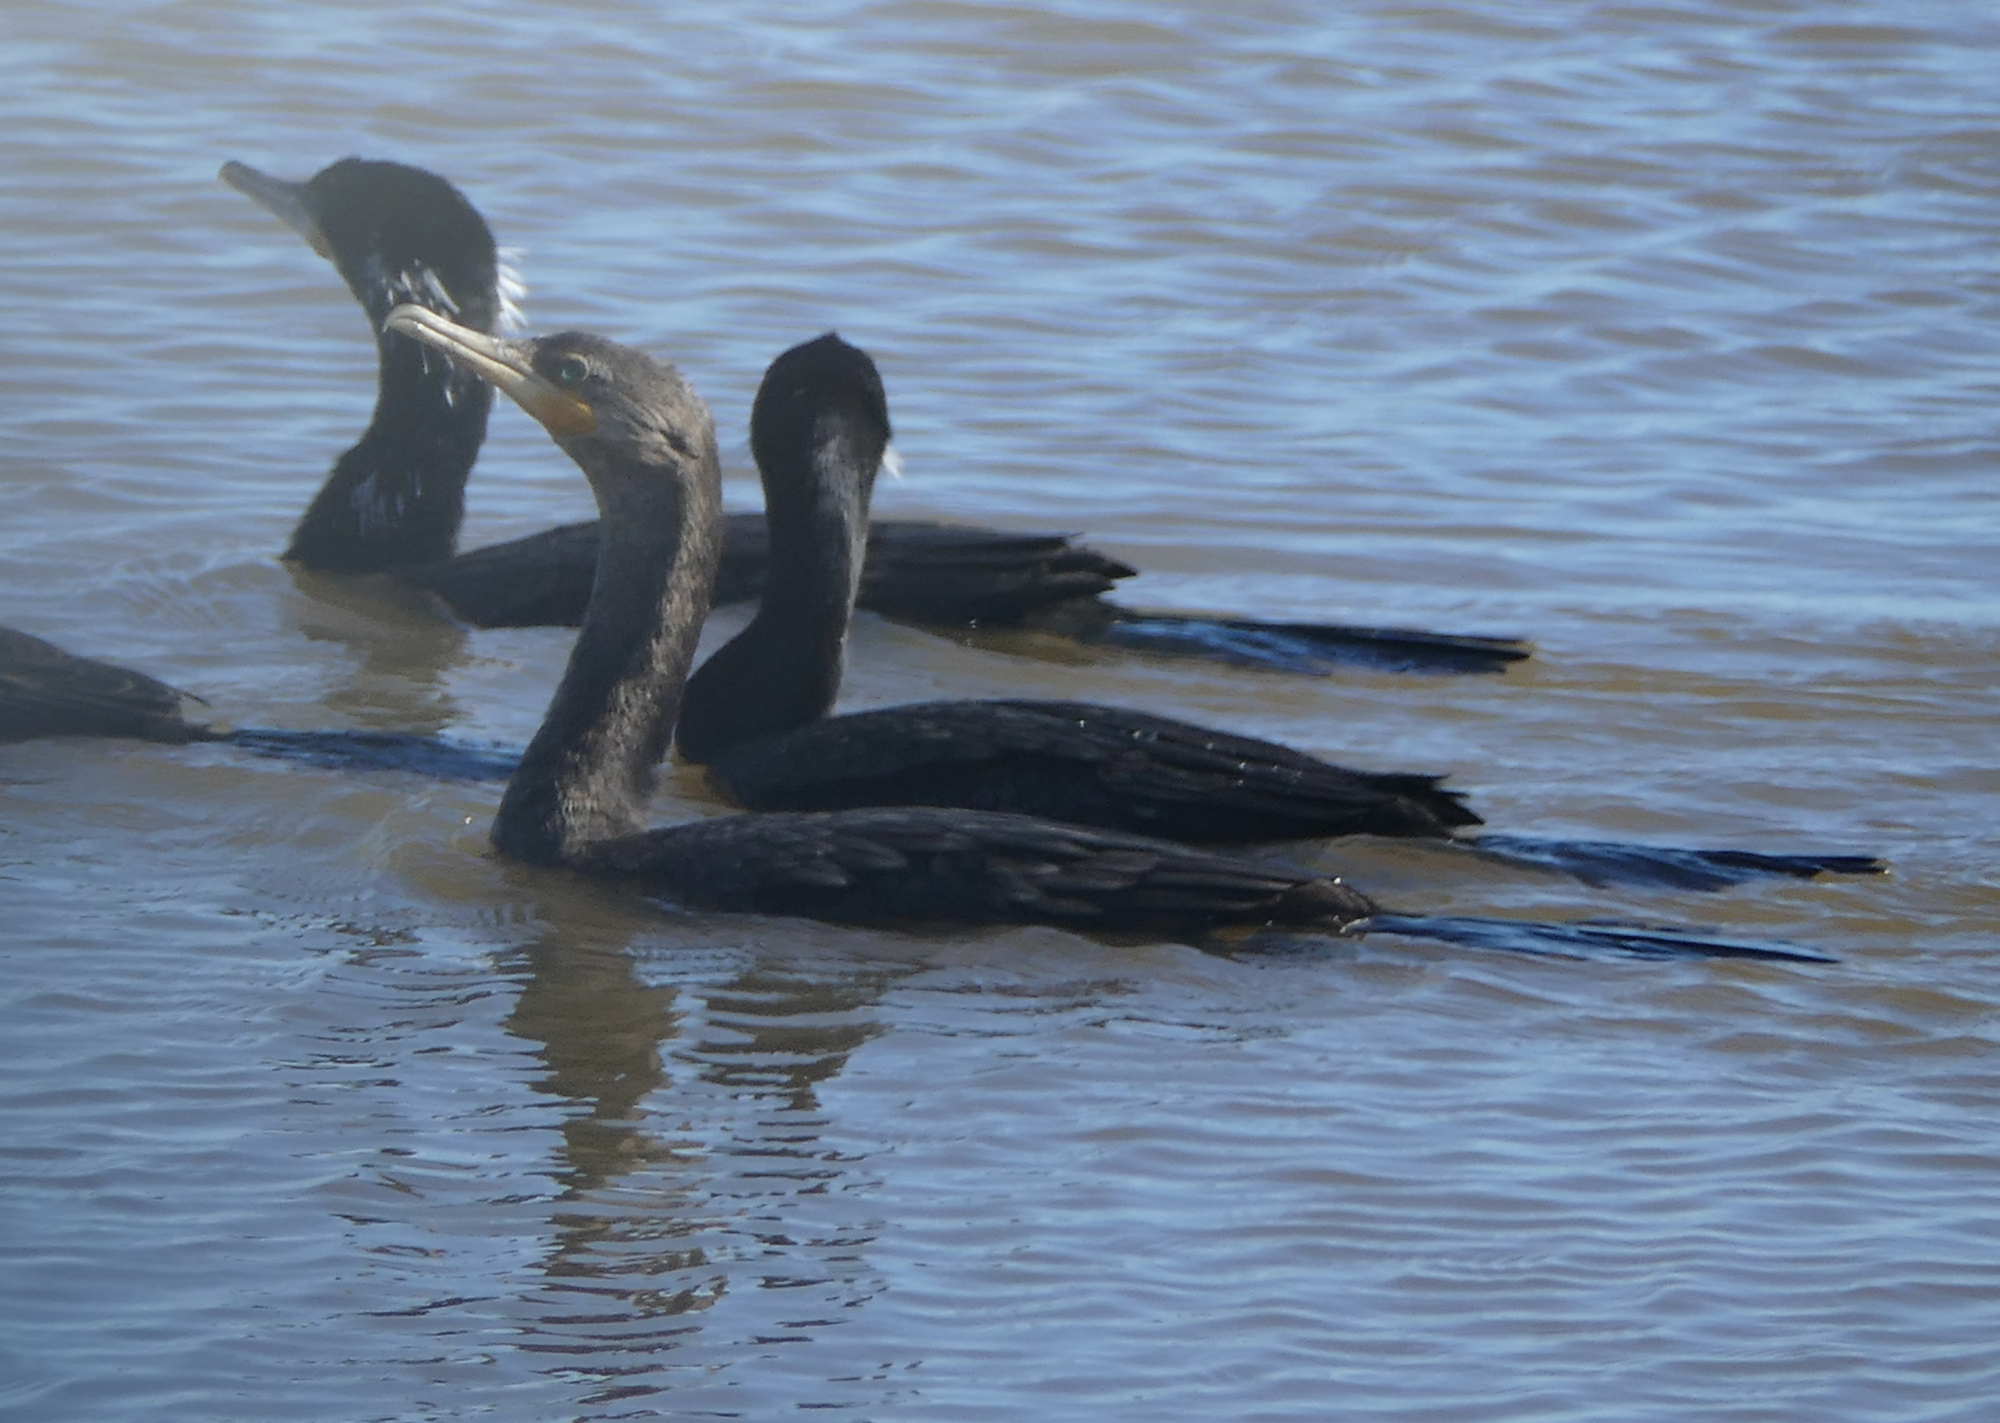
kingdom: Animalia
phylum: Chordata
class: Aves
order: Suliformes
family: Phalacrocoracidae
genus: Phalacrocorax
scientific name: Phalacrocorax auritus
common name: Double-crested cormorant
